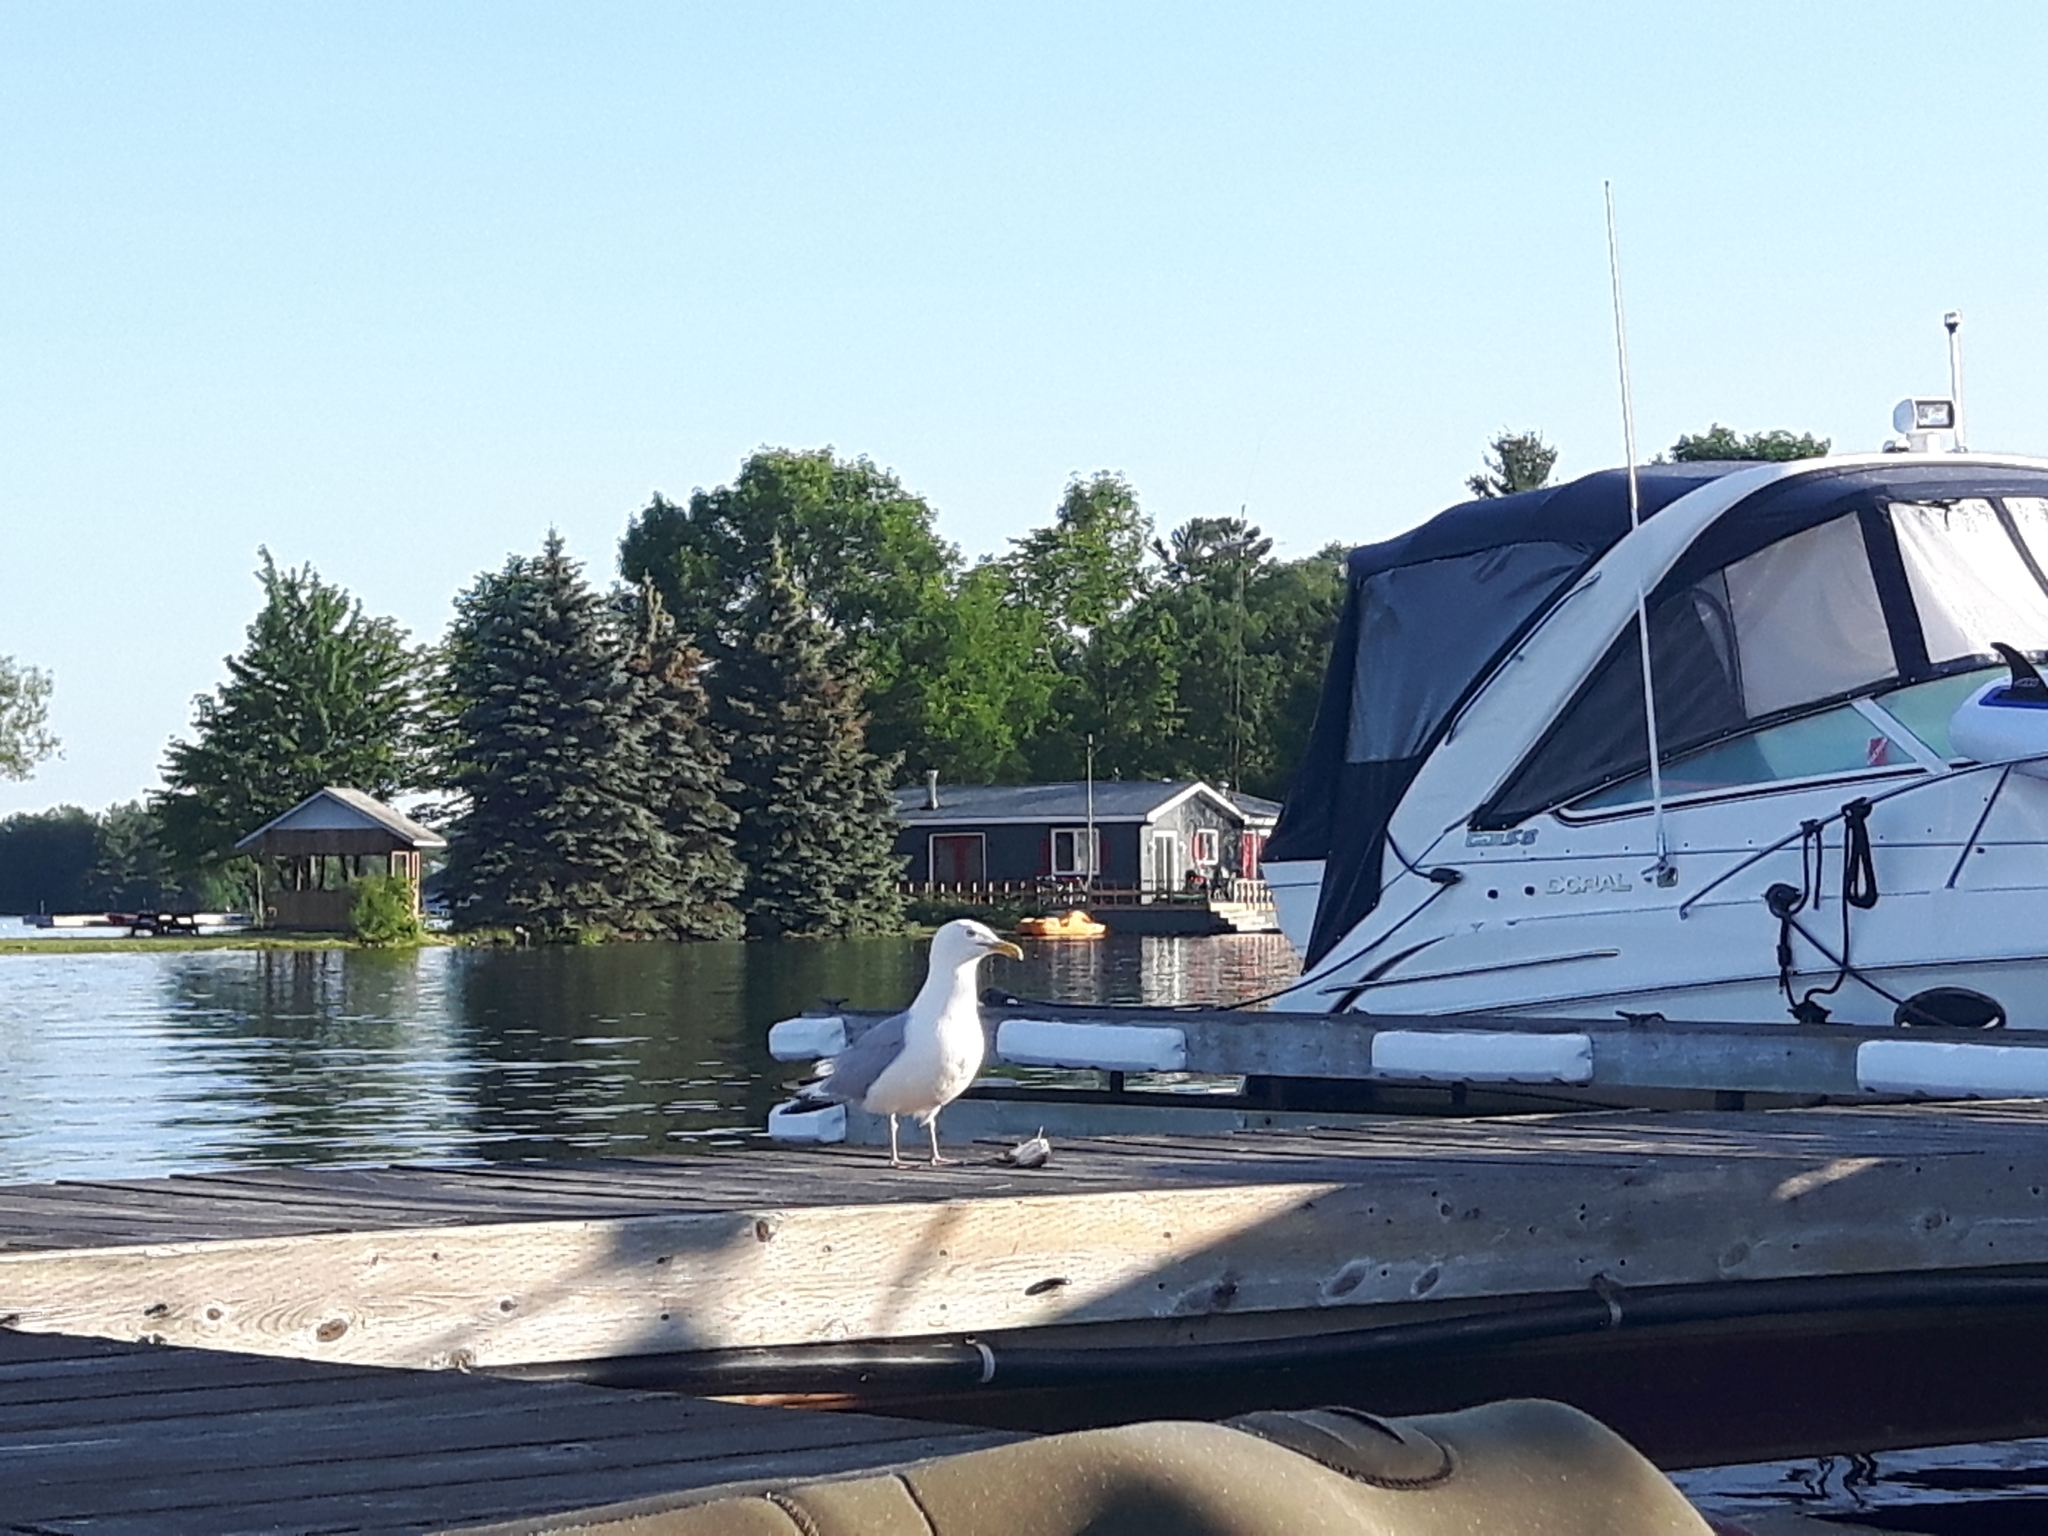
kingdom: Animalia
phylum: Chordata
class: Aves
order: Charadriiformes
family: Laridae
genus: Larus
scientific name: Larus argentatus
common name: Herring gull
